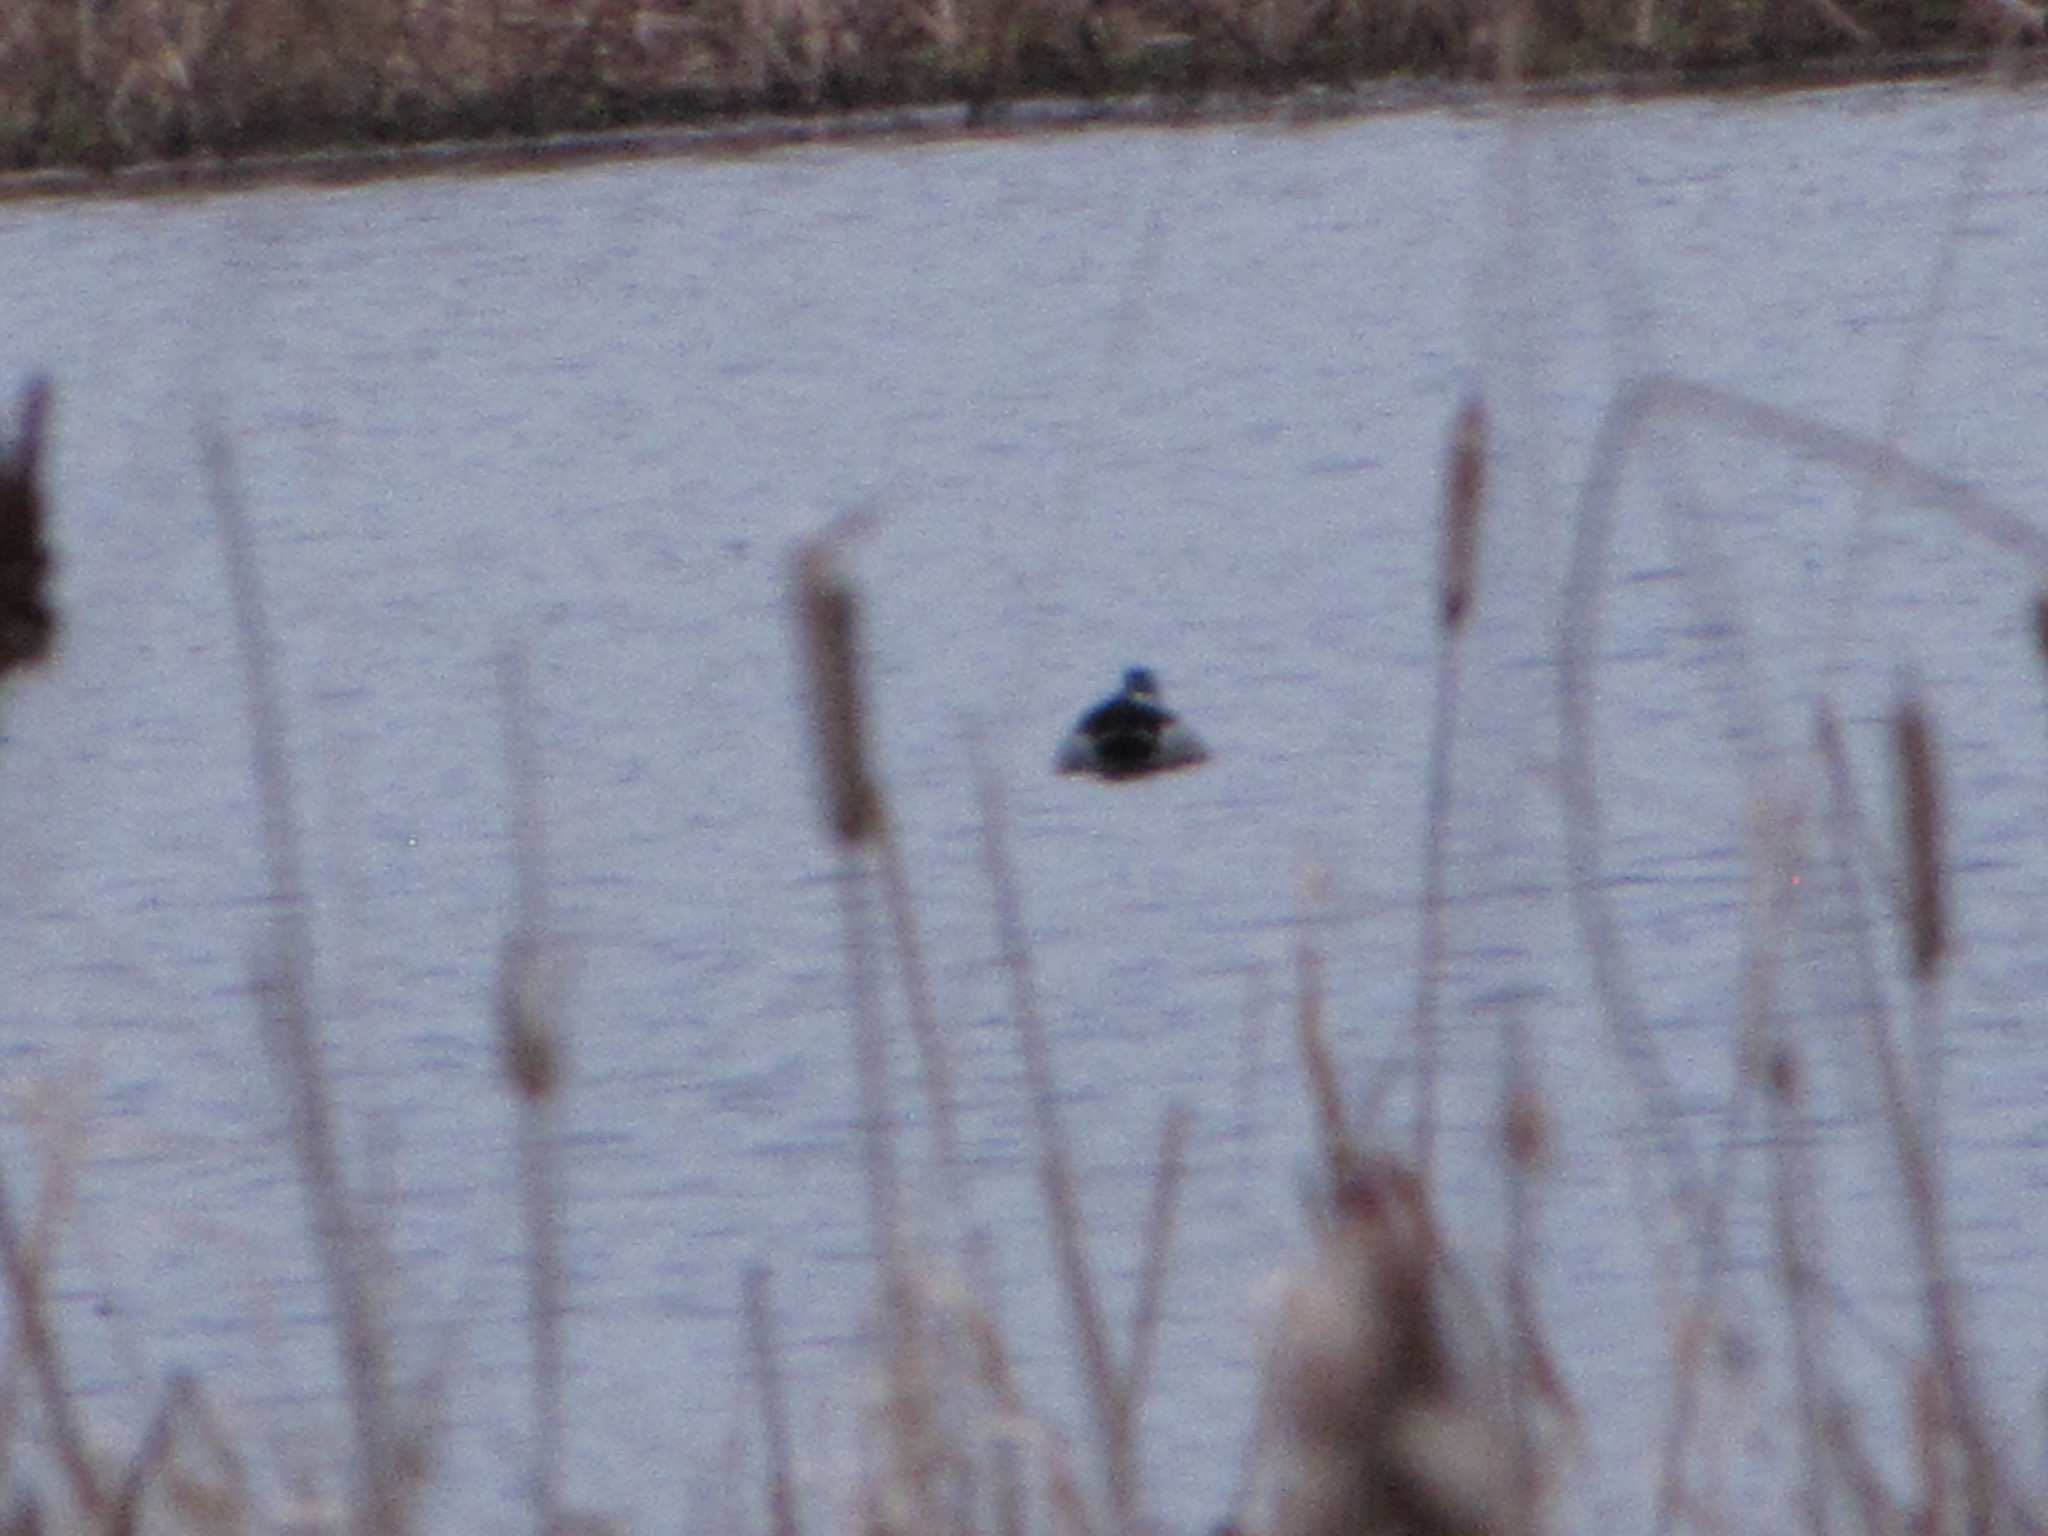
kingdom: Animalia
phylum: Chordata
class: Aves
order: Anseriformes
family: Anatidae
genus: Anas
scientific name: Anas platyrhynchos
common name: Mallard
